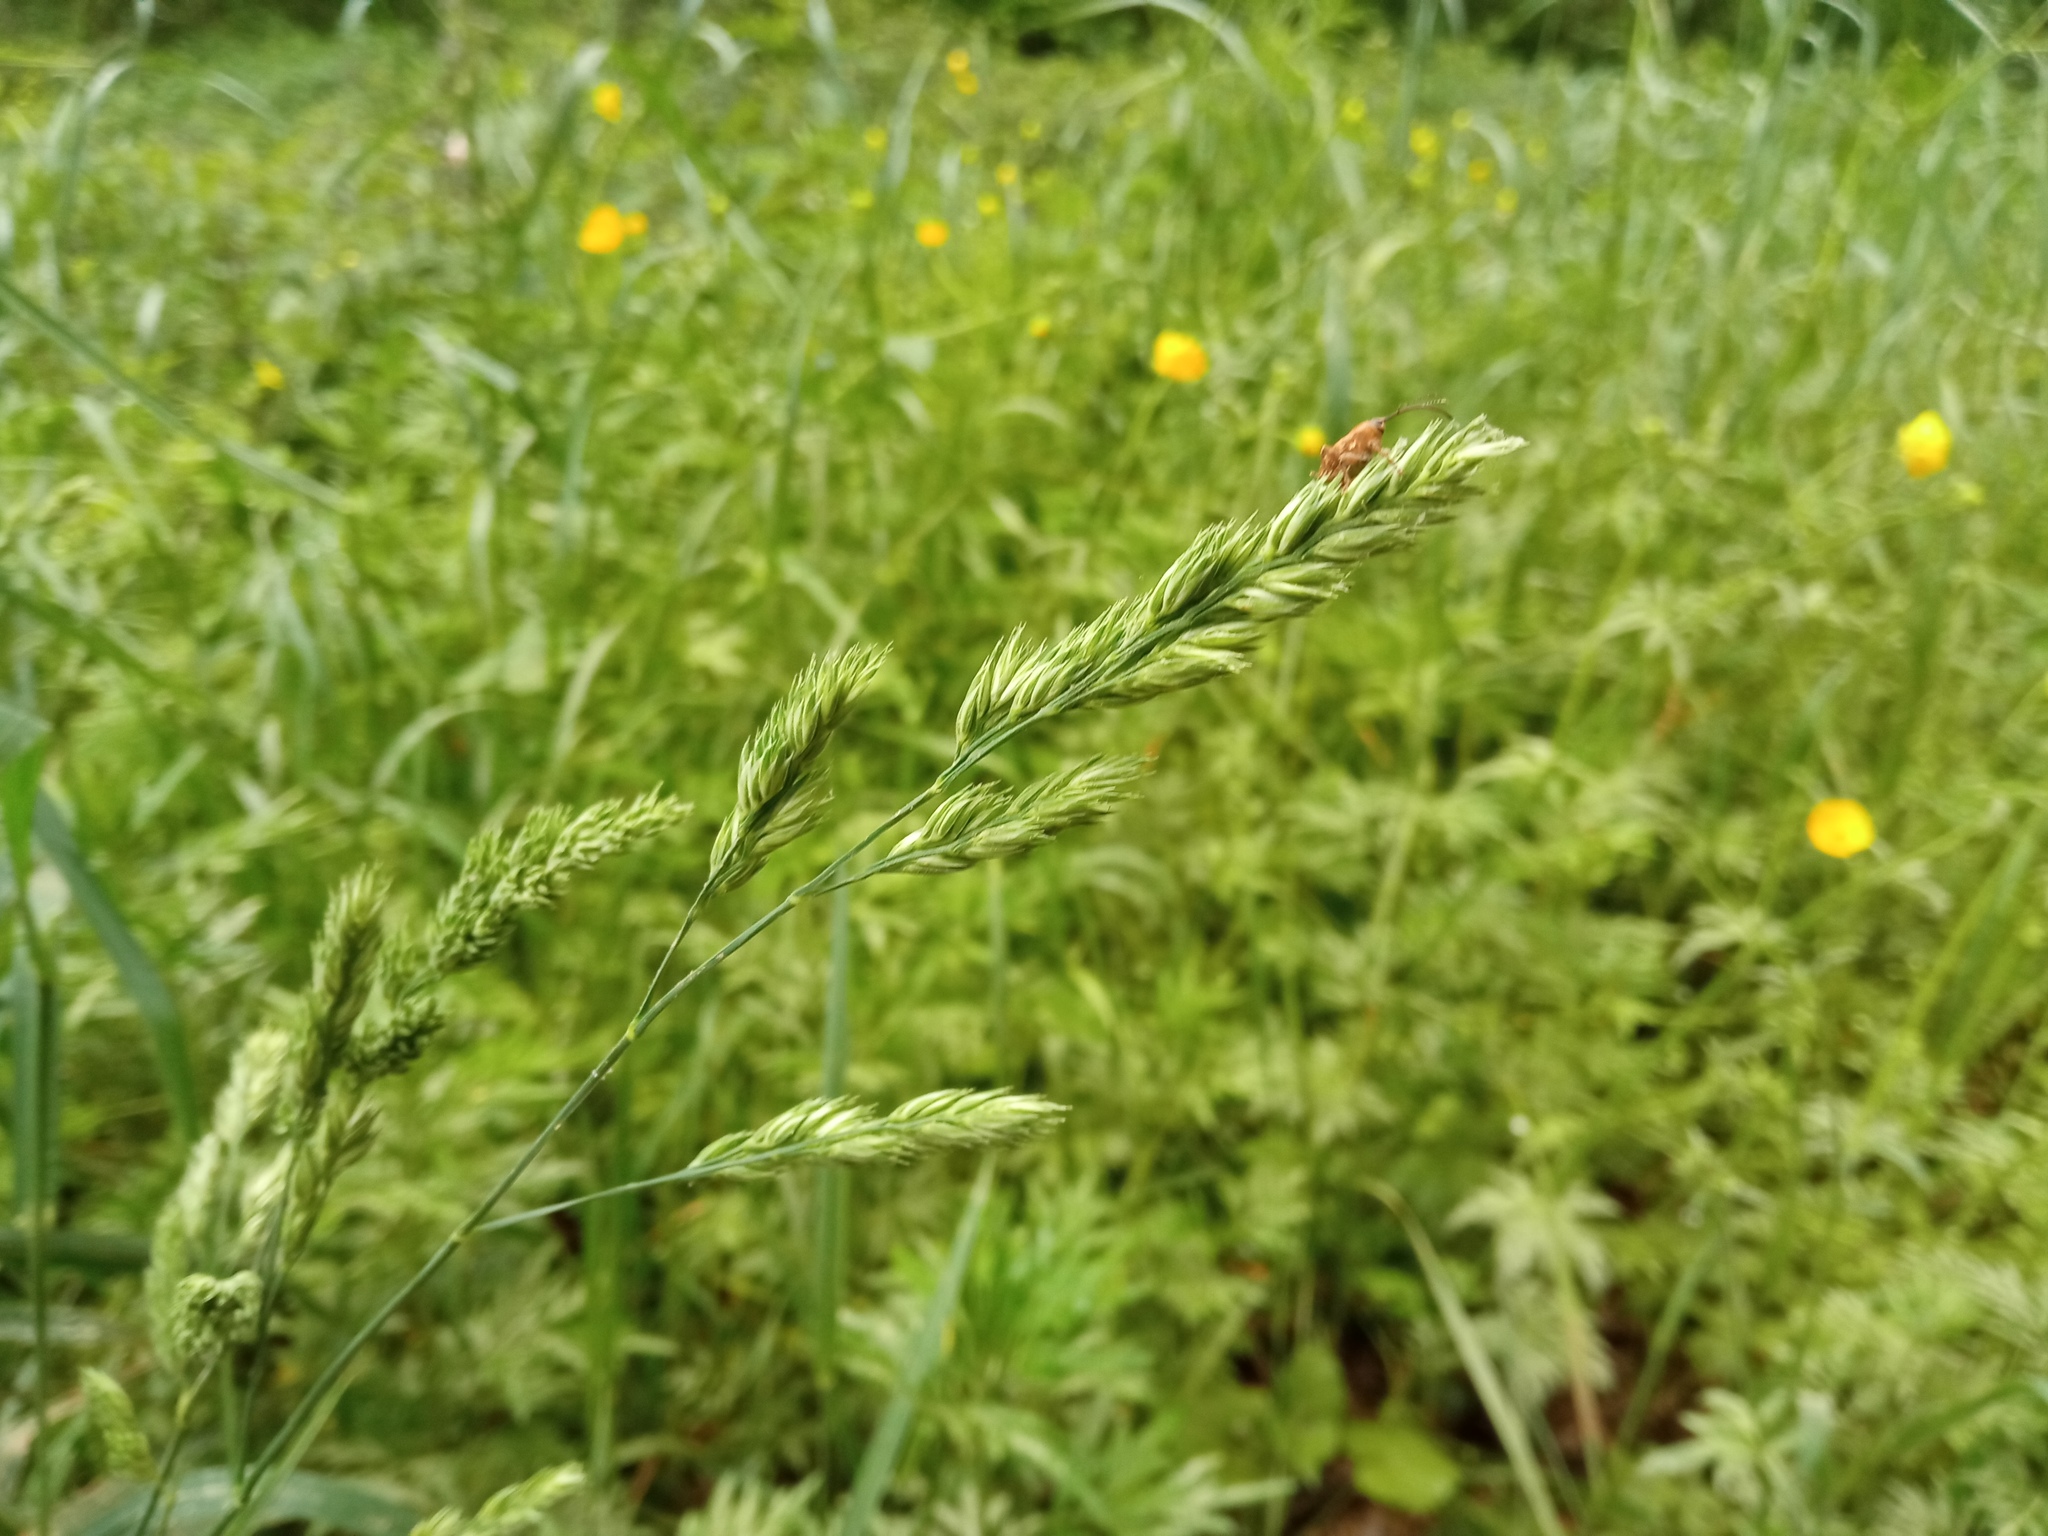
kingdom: Plantae
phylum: Tracheophyta
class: Liliopsida
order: Poales
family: Poaceae
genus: Dactylis
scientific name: Dactylis glomerata
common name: Orchardgrass
